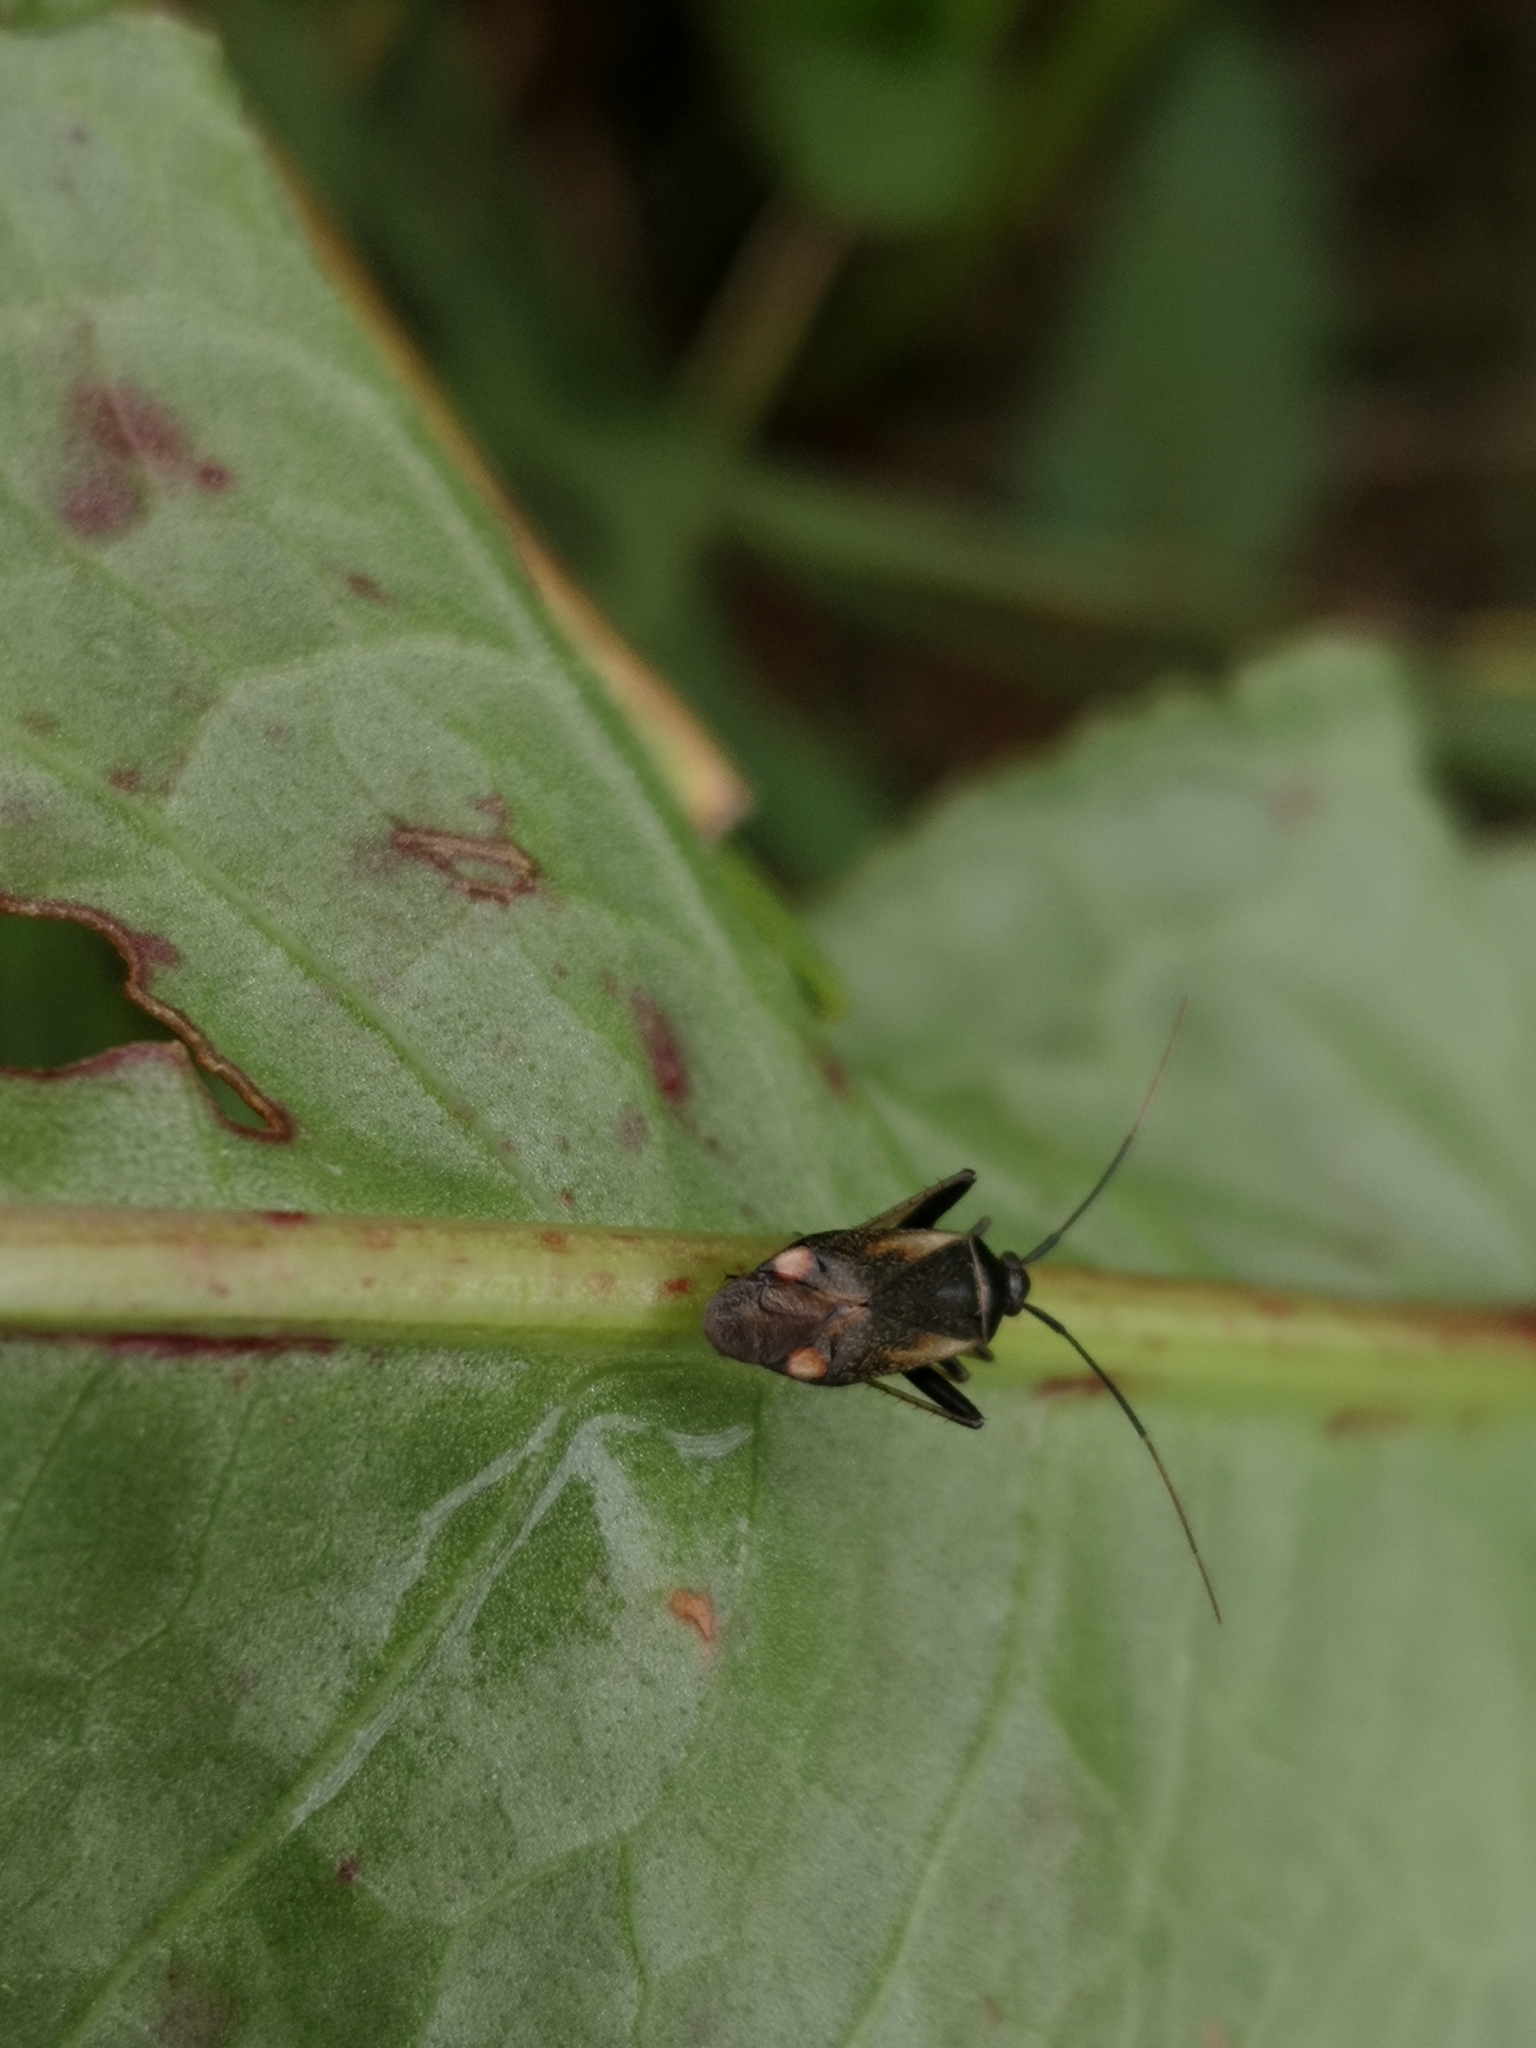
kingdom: Animalia
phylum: Arthropoda
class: Insecta
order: Hemiptera
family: Miridae
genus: Adelphocoris
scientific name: Adelphocoris seticornis
